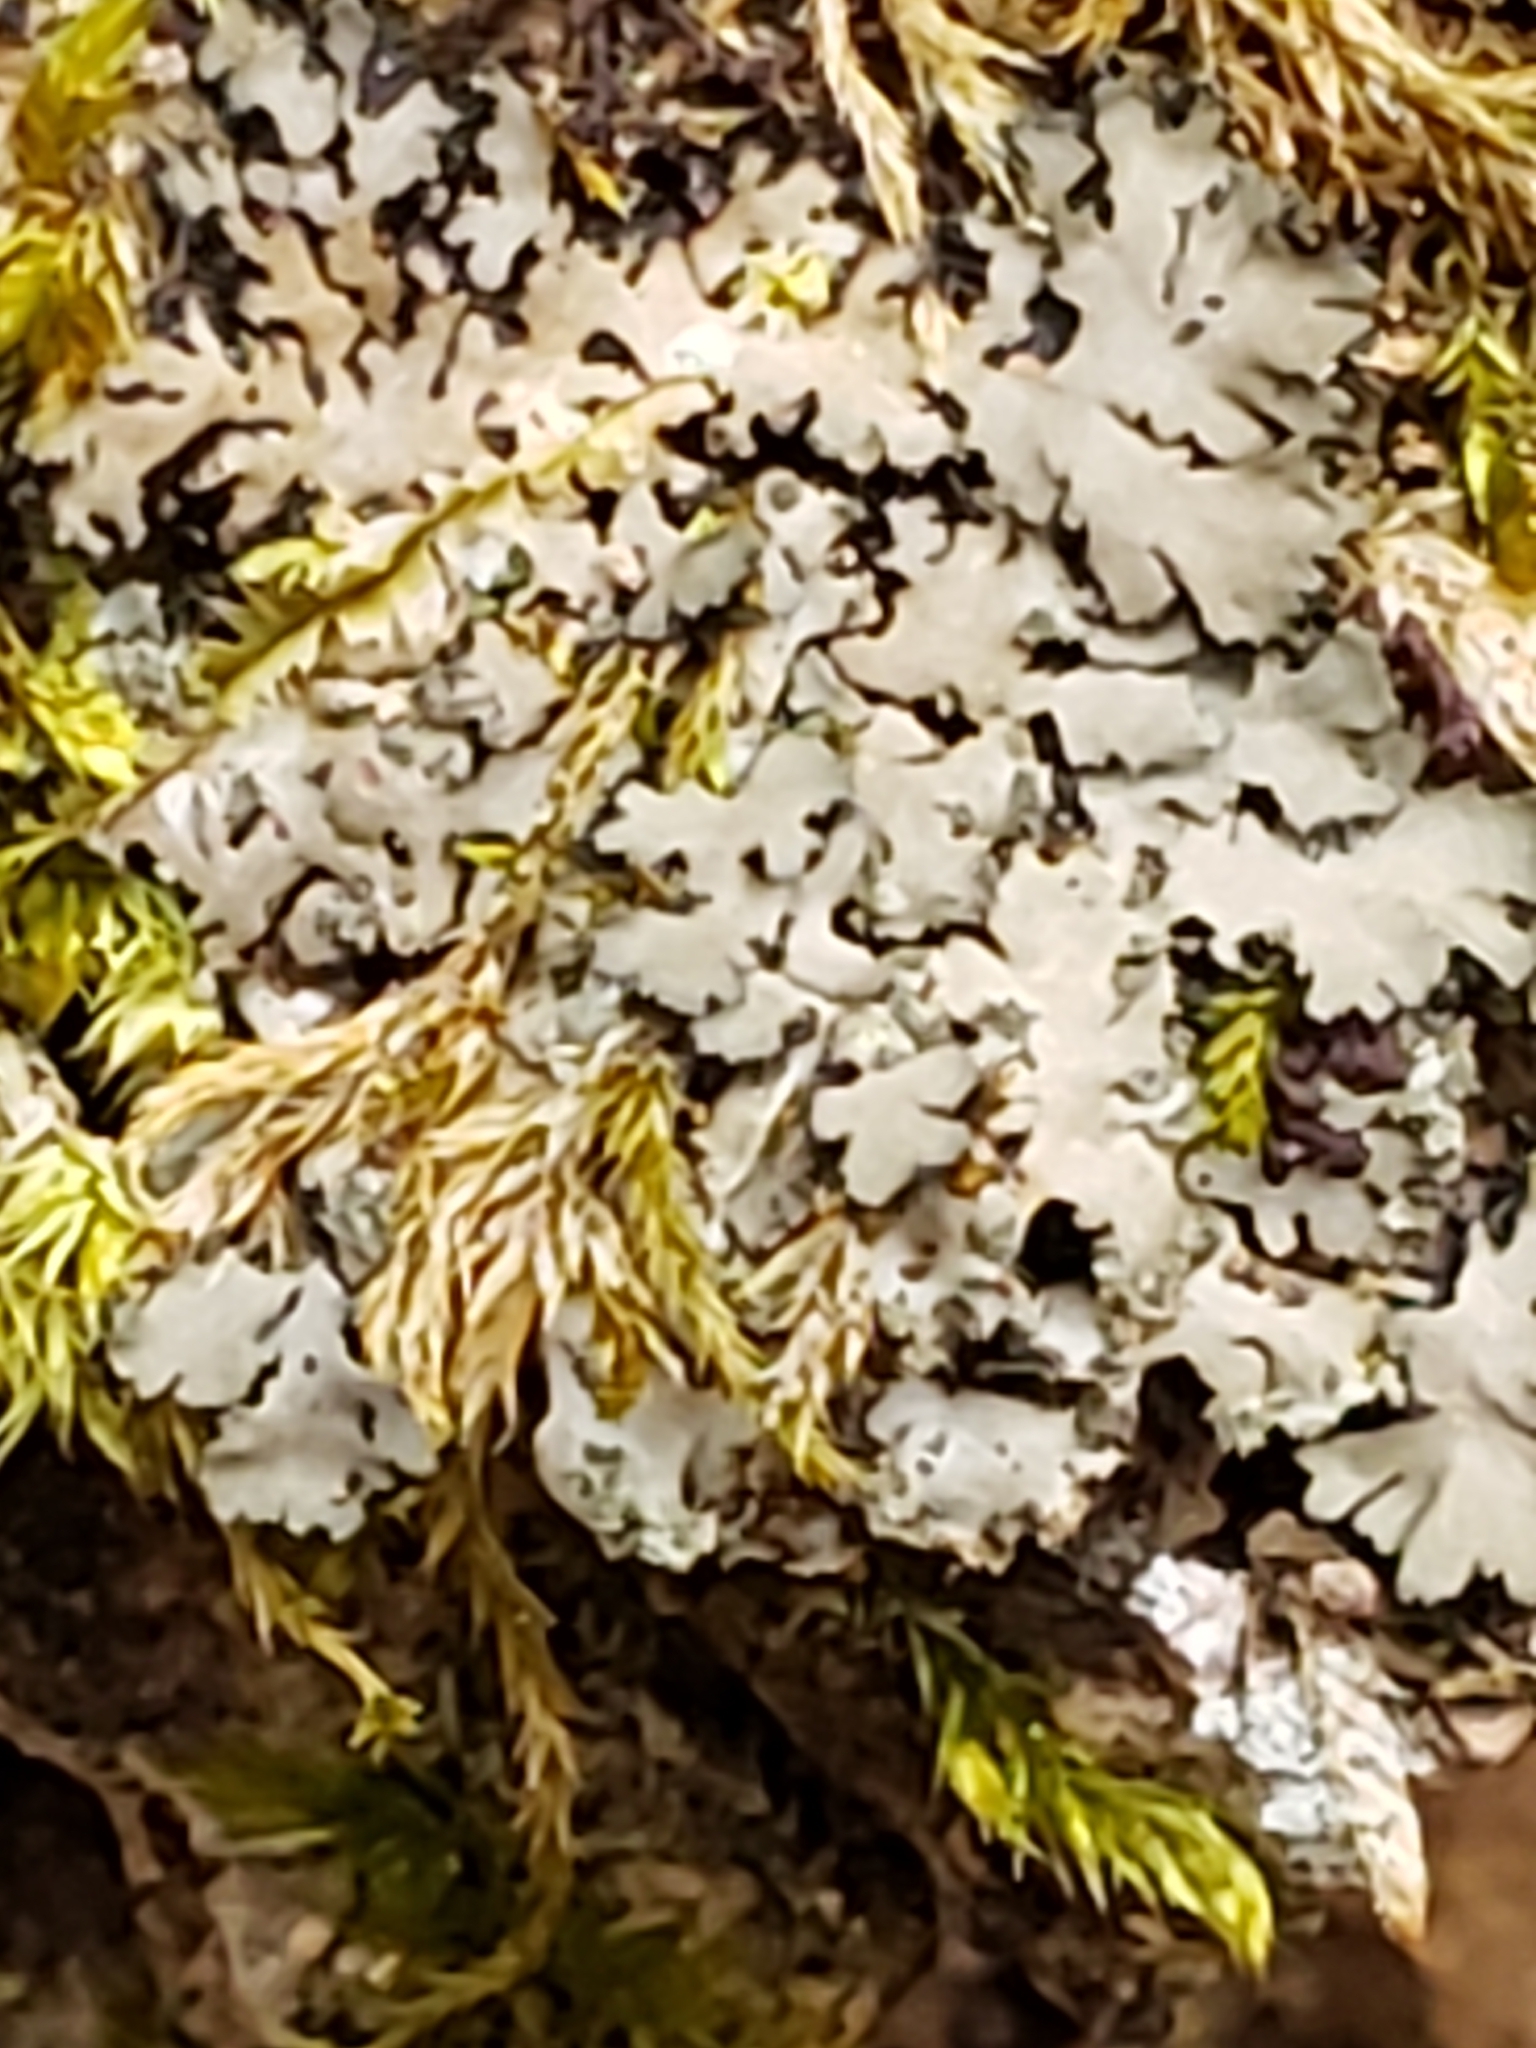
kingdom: Fungi
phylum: Ascomycota
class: Lecanoromycetes
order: Caliciales
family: Physciaceae
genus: Phaeophyscia
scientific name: Phaeophyscia rubropulchra
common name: Orange-cored shadow lichen
